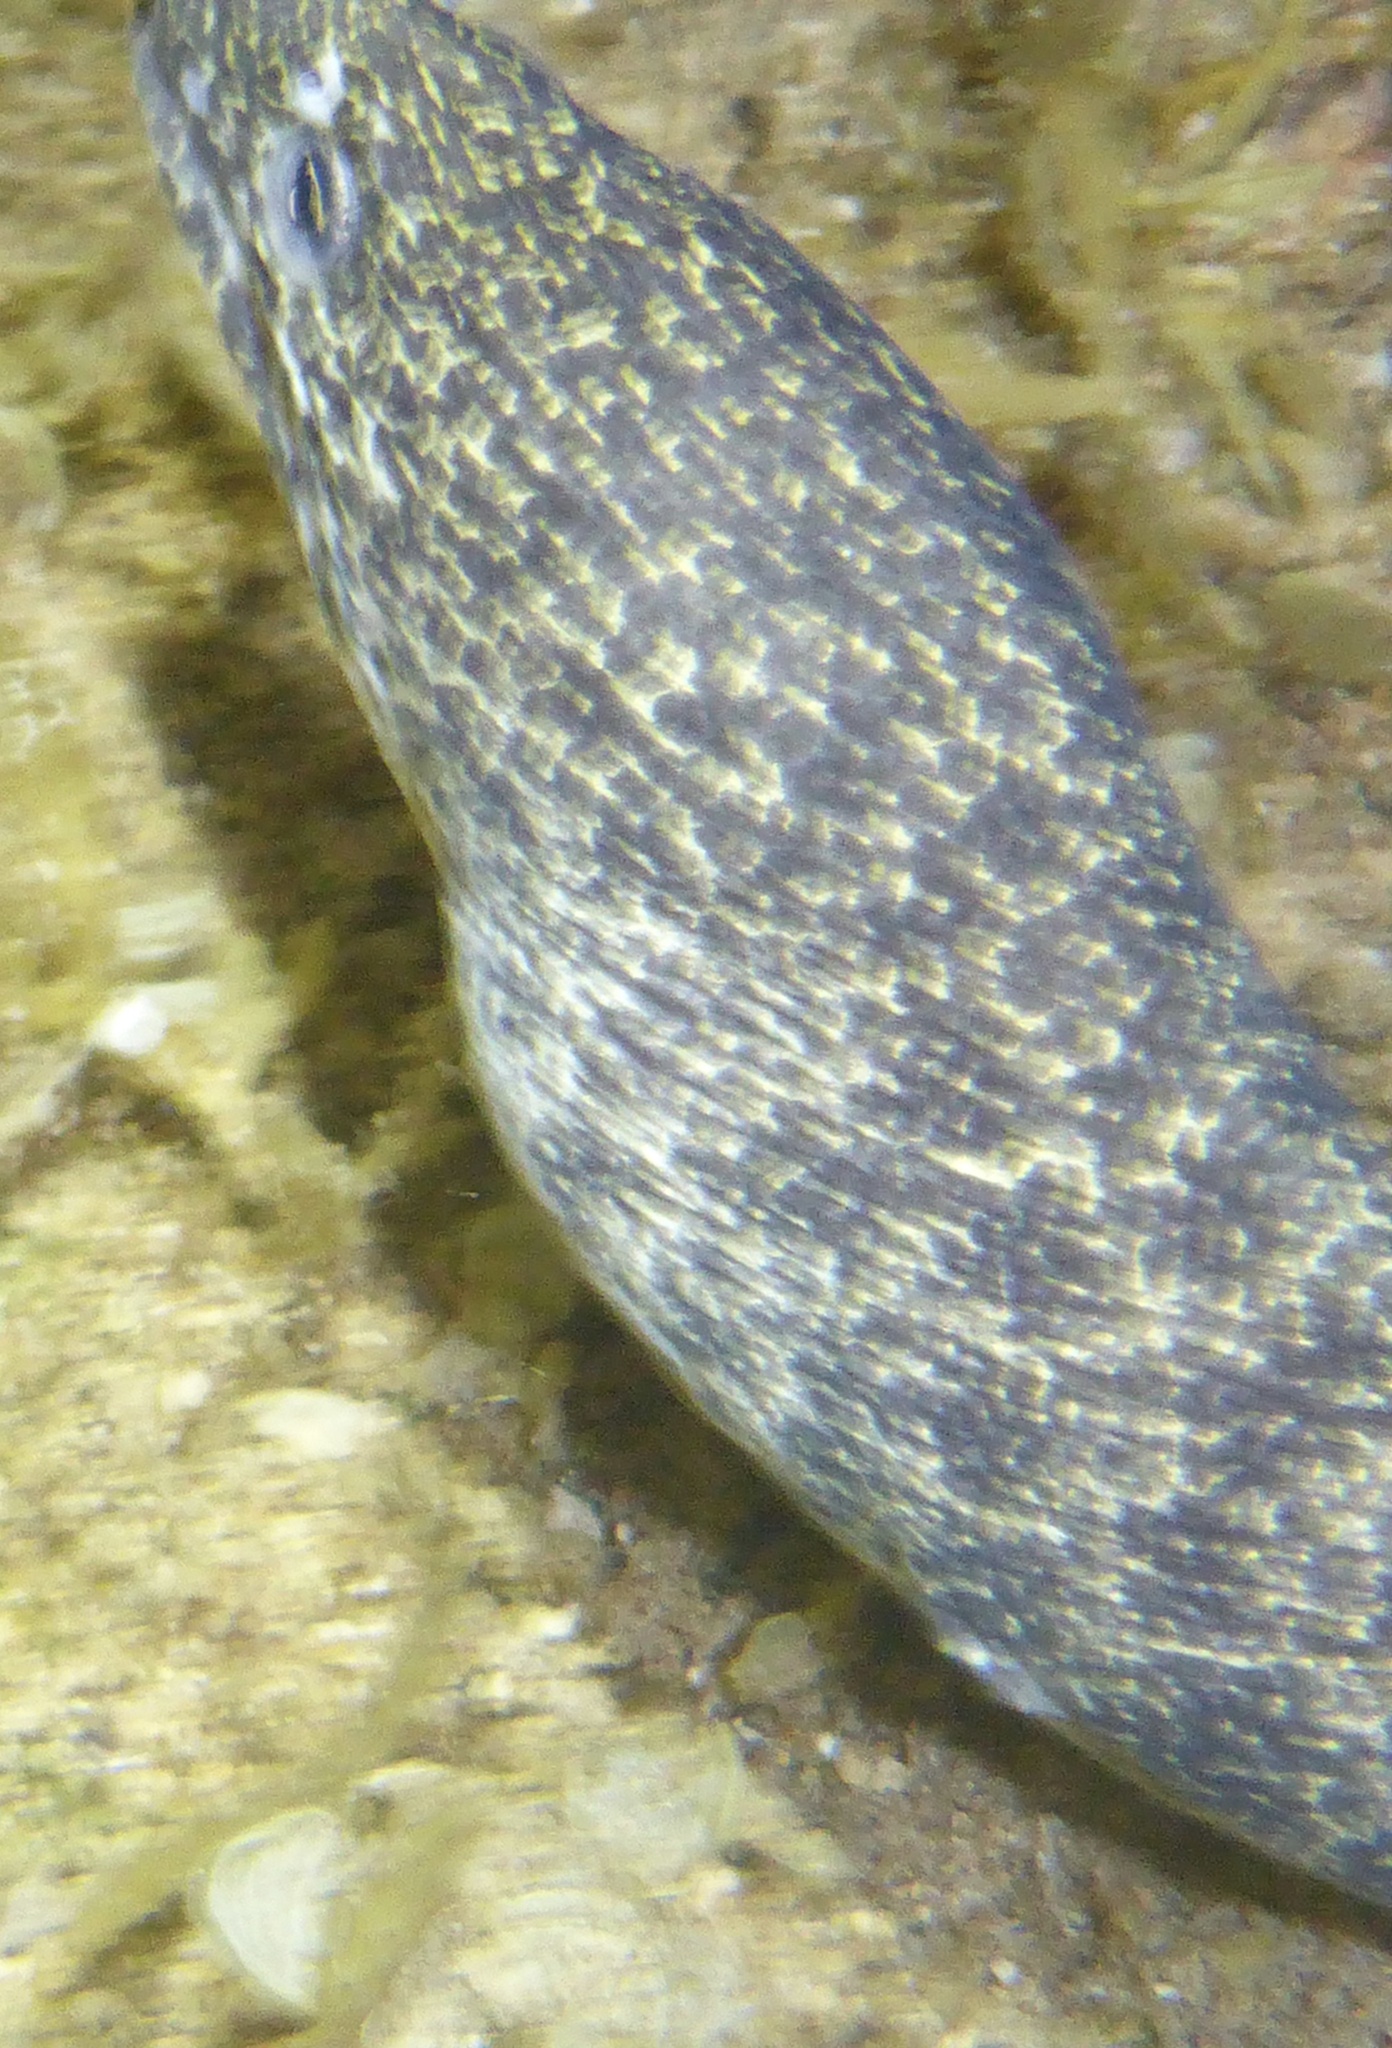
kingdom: Animalia
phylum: Chordata
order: Anguilliformes
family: Muraenidae
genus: Gymnothorax
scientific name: Gymnothorax pictus
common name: Peppered moray
